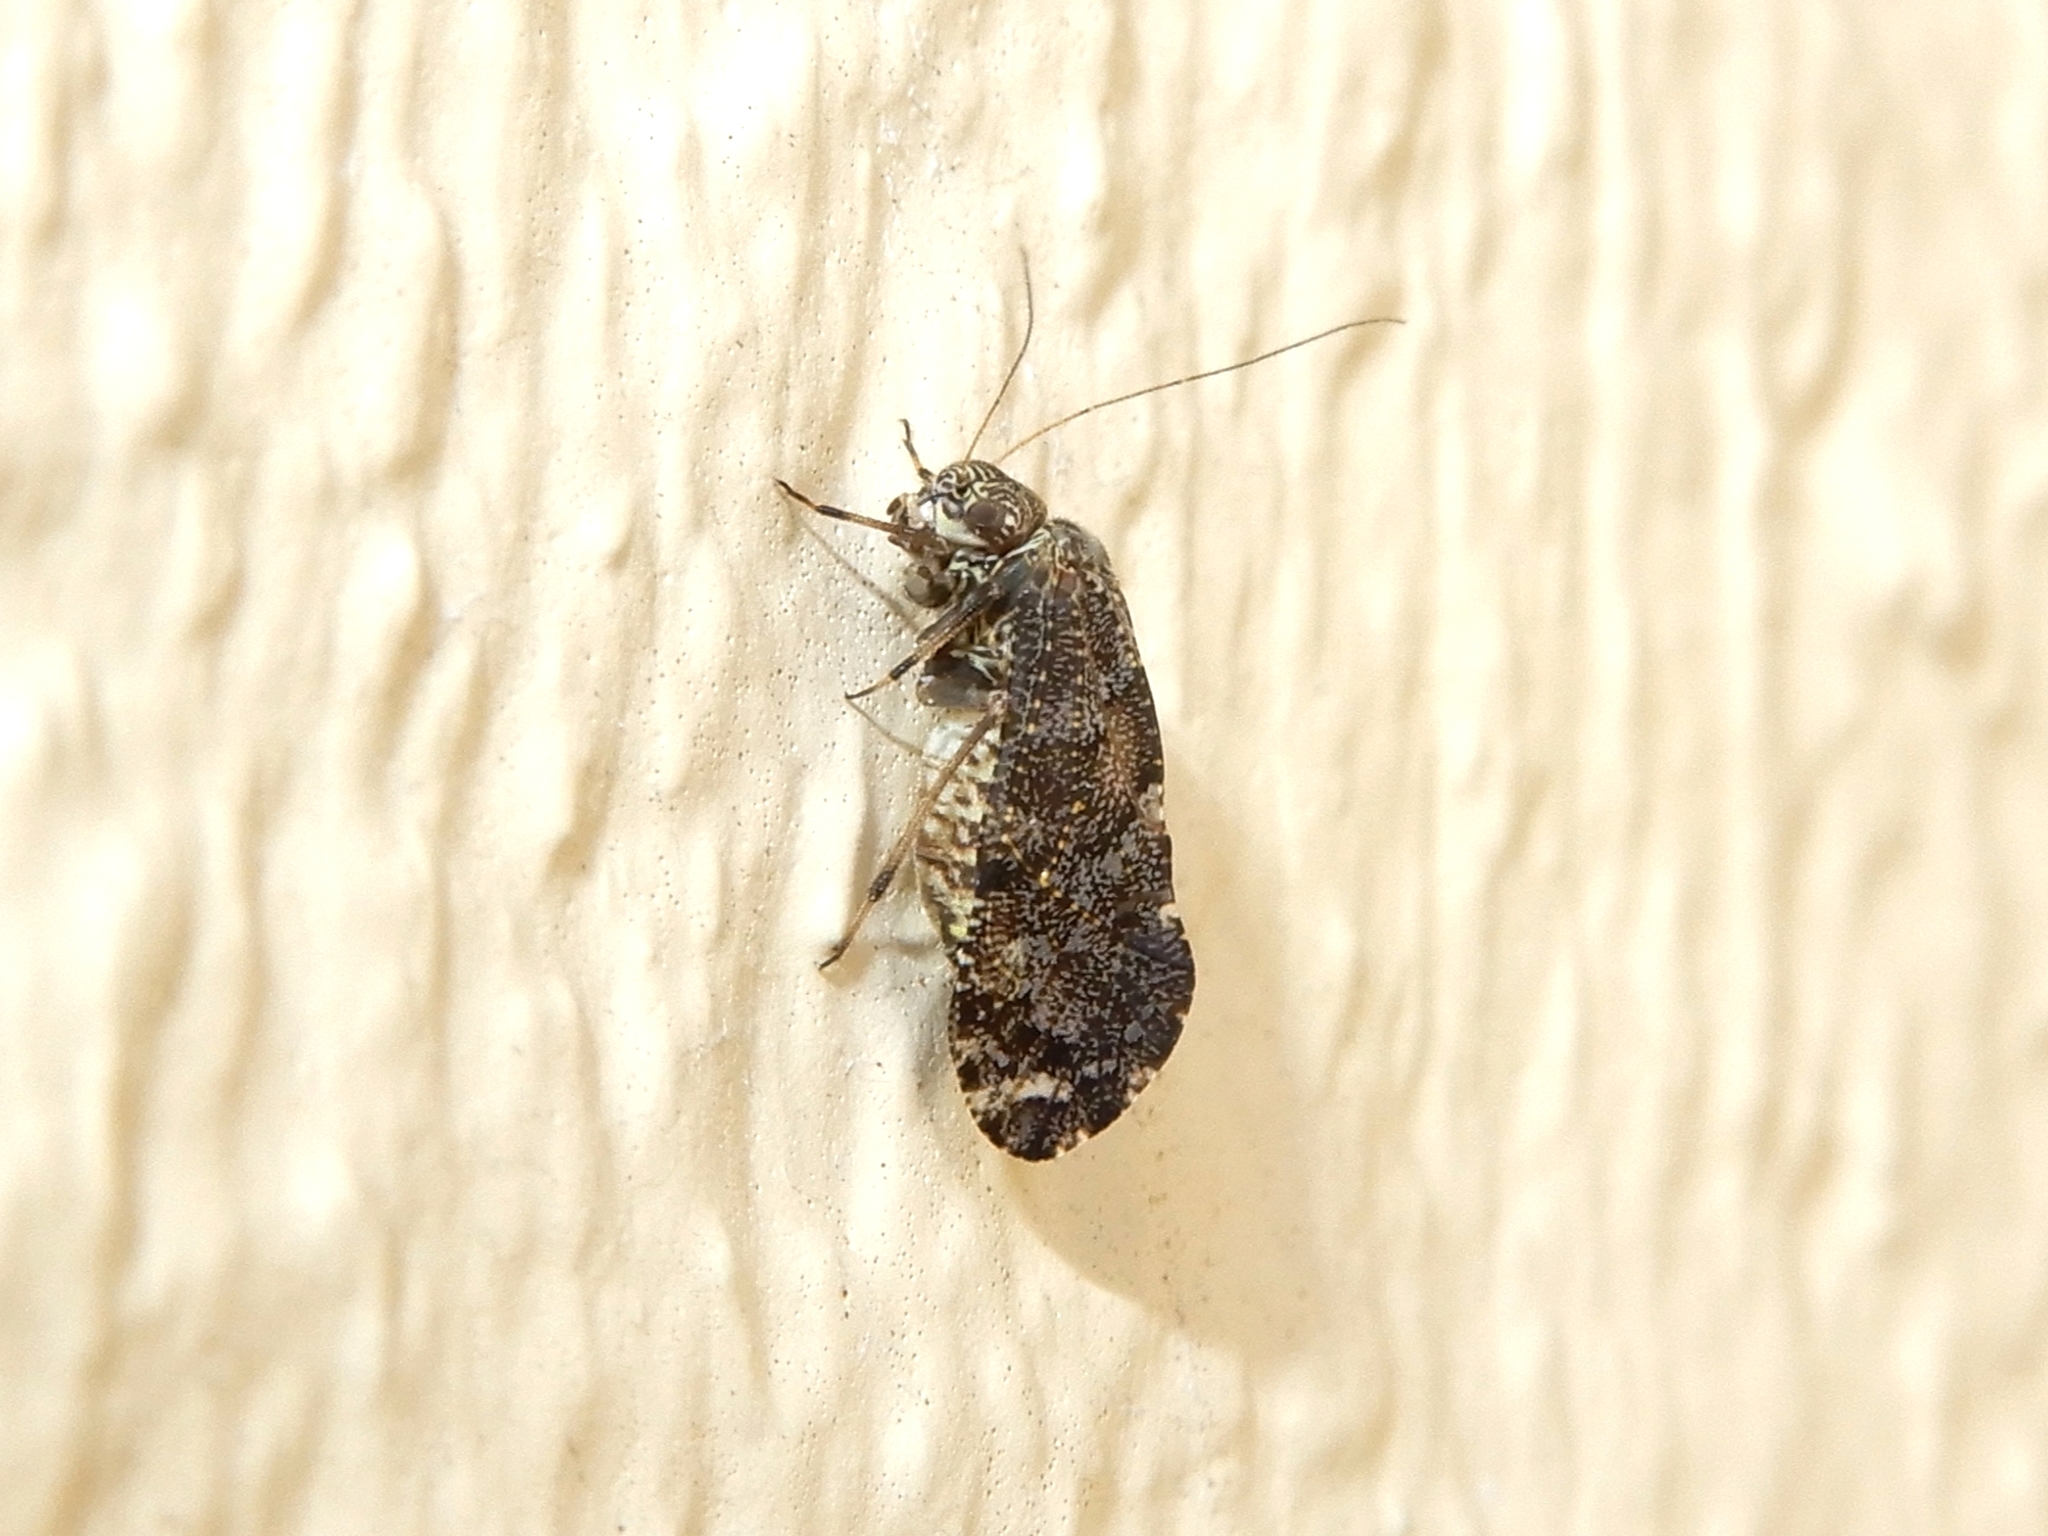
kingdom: Animalia
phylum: Arthropoda
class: Insecta
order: Psocodea
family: Myopsocidae
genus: Nimbopsocus
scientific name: Nimbopsocus australis
